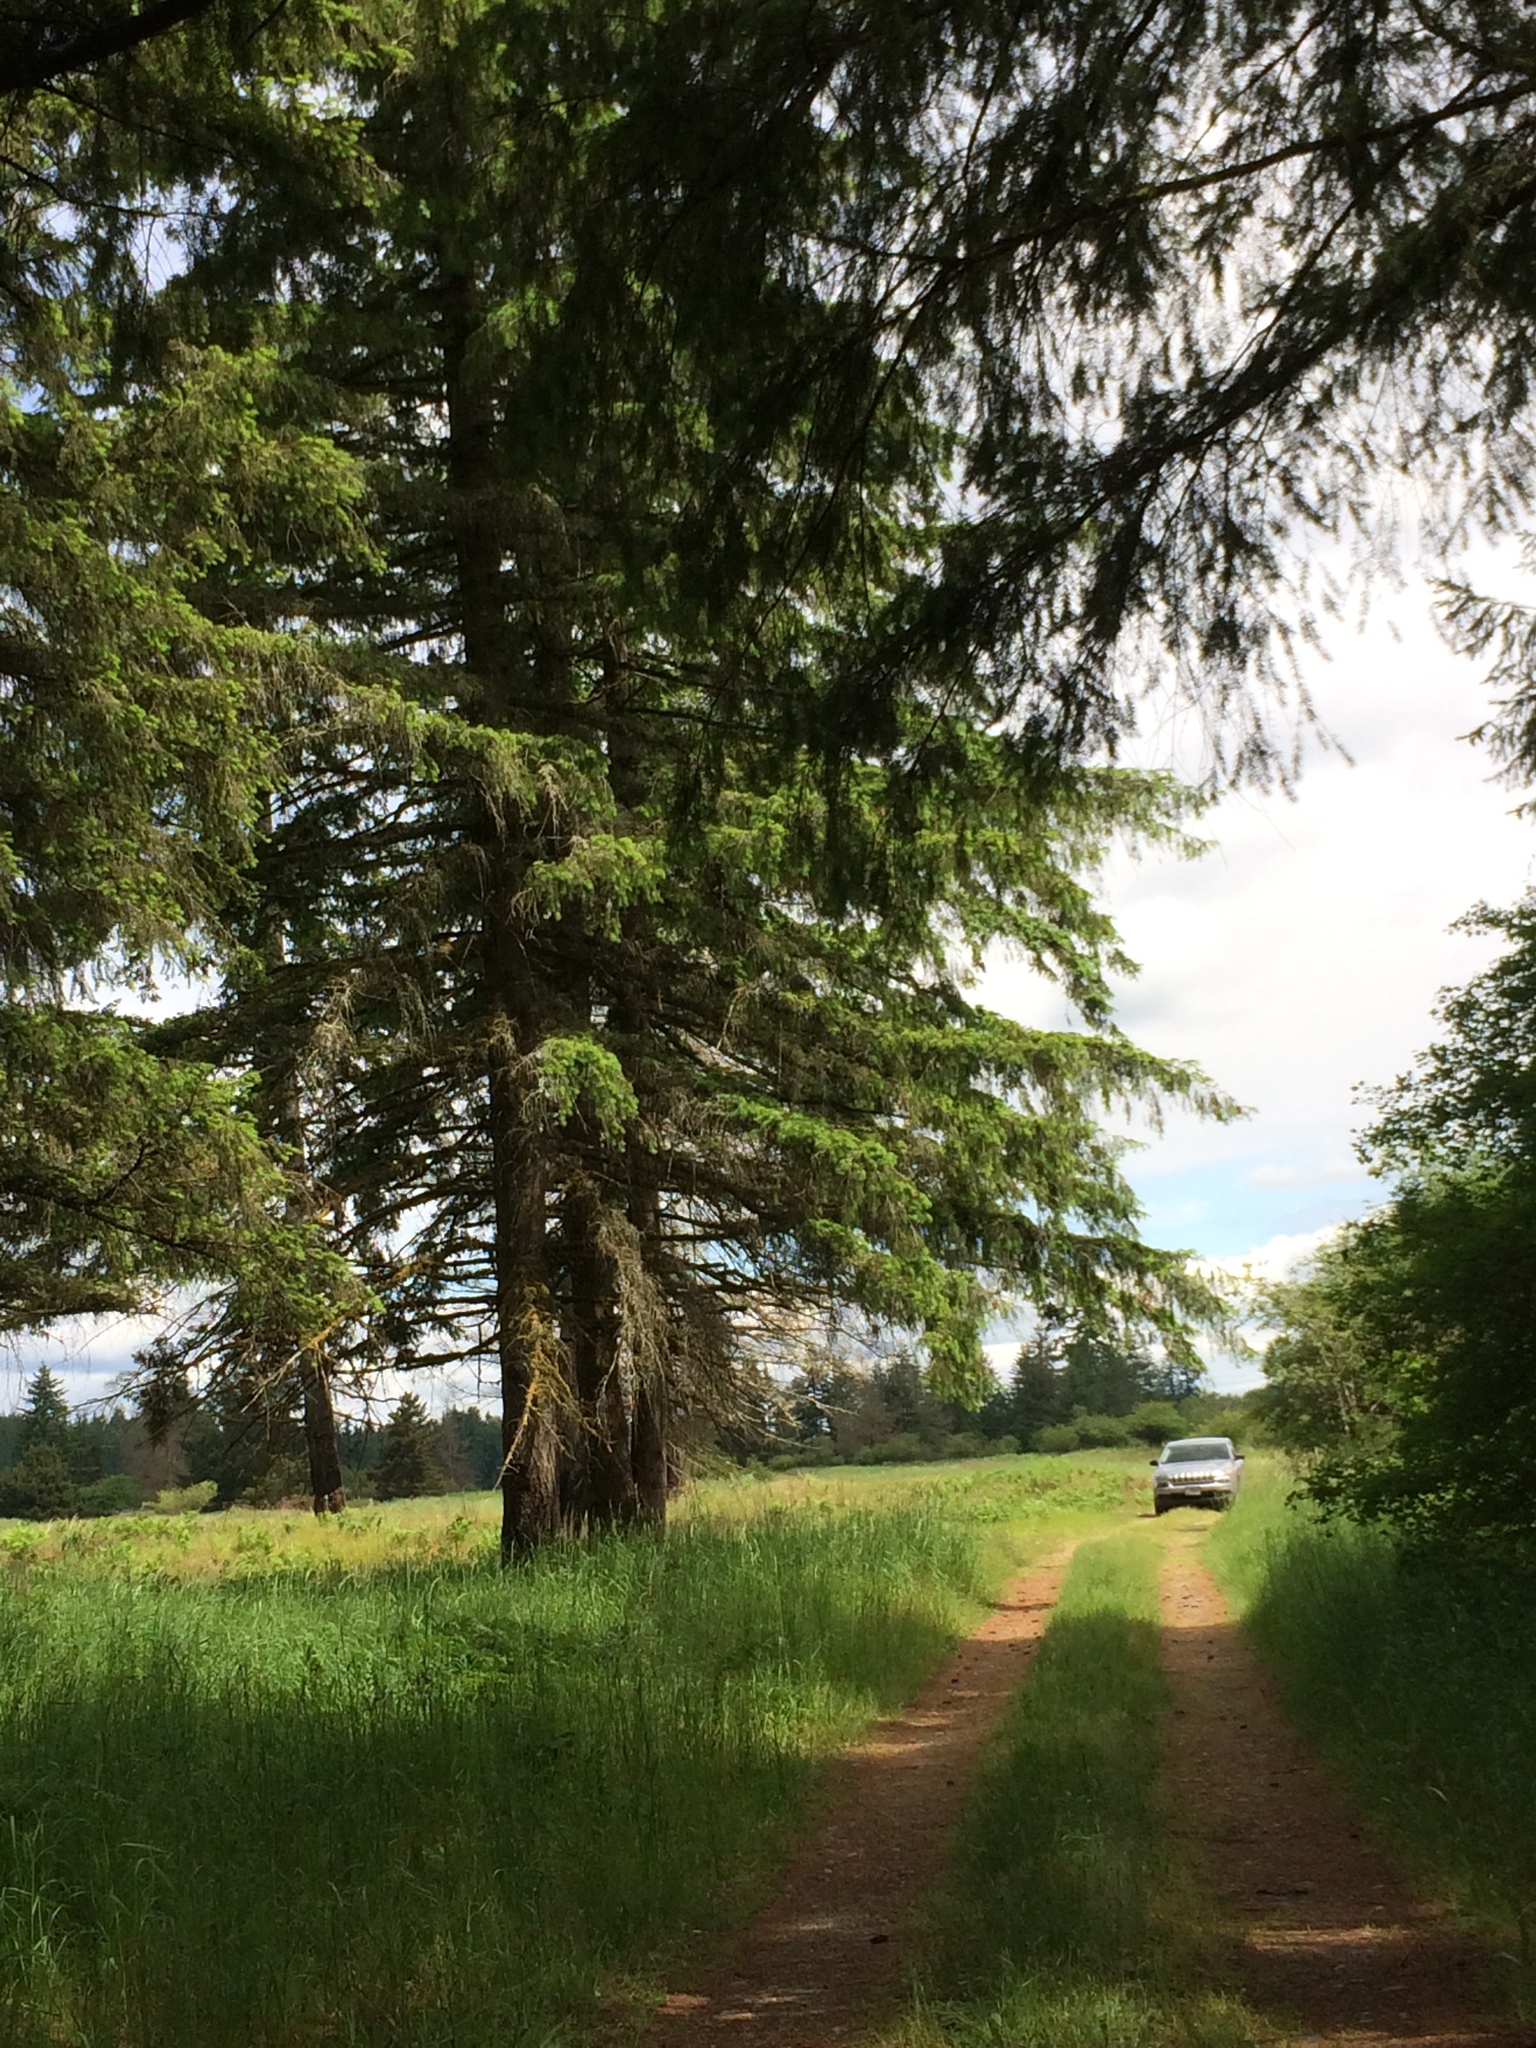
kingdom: Plantae
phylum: Tracheophyta
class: Pinopsida
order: Pinales
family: Pinaceae
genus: Pseudotsuga
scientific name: Pseudotsuga menziesii
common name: Douglas fir
